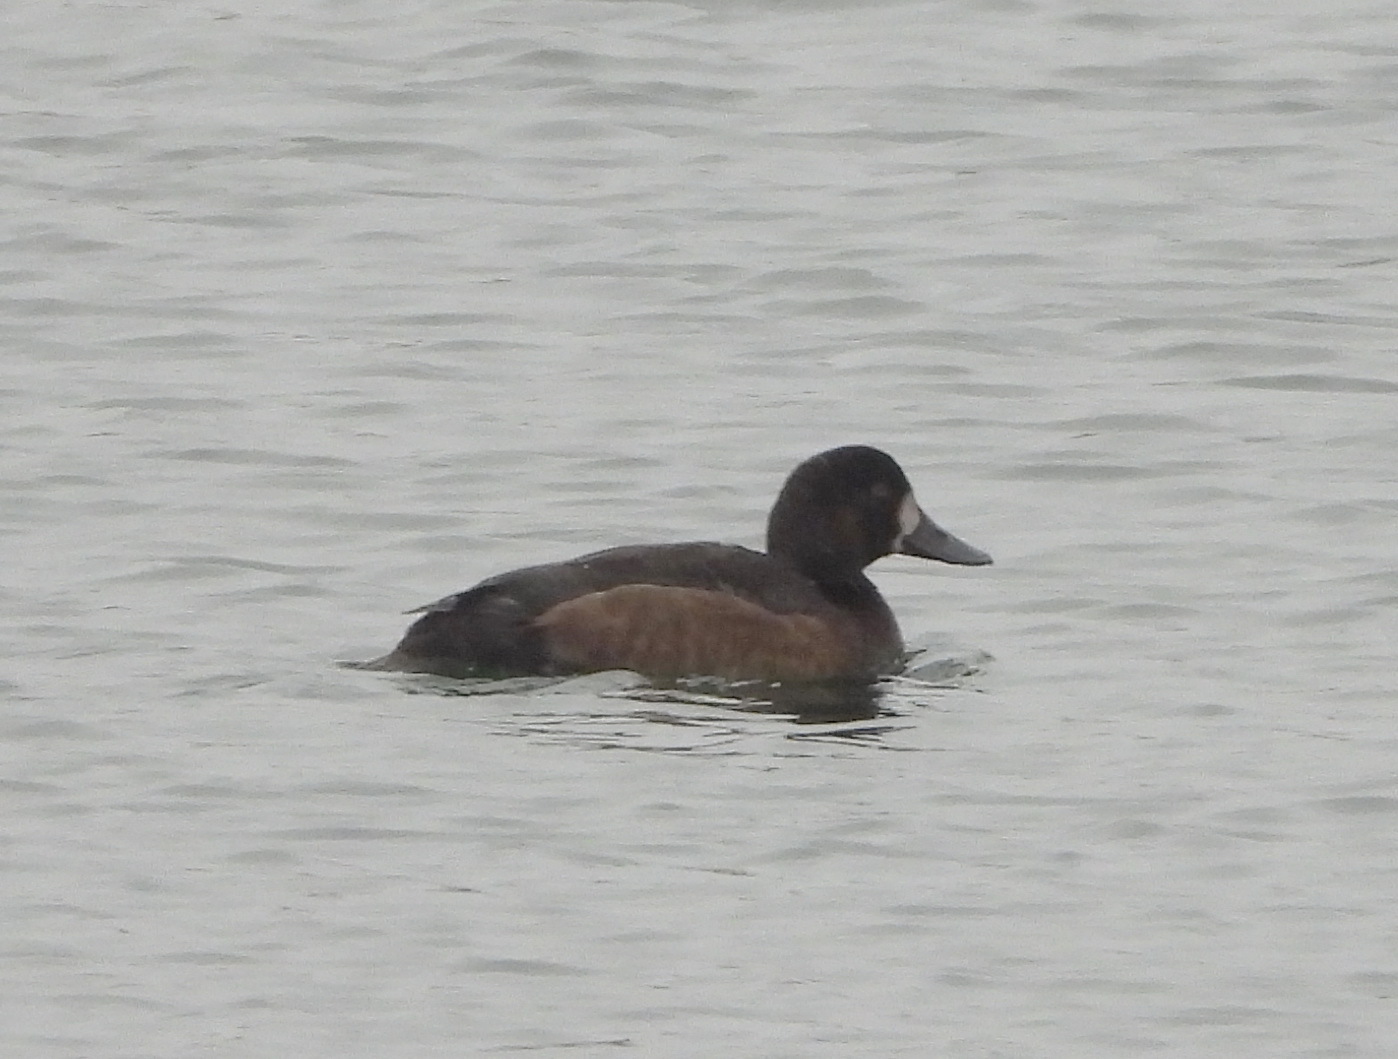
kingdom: Animalia
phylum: Chordata
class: Aves
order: Anseriformes
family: Anatidae
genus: Aythya
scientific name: Aythya fuligula
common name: Tufted duck
